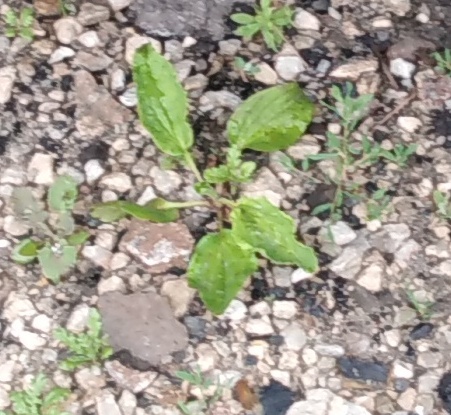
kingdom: Plantae
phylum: Tracheophyta
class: Magnoliopsida
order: Lamiales
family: Plantaginaceae
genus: Plantago
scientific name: Plantago major
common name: Common plantain
